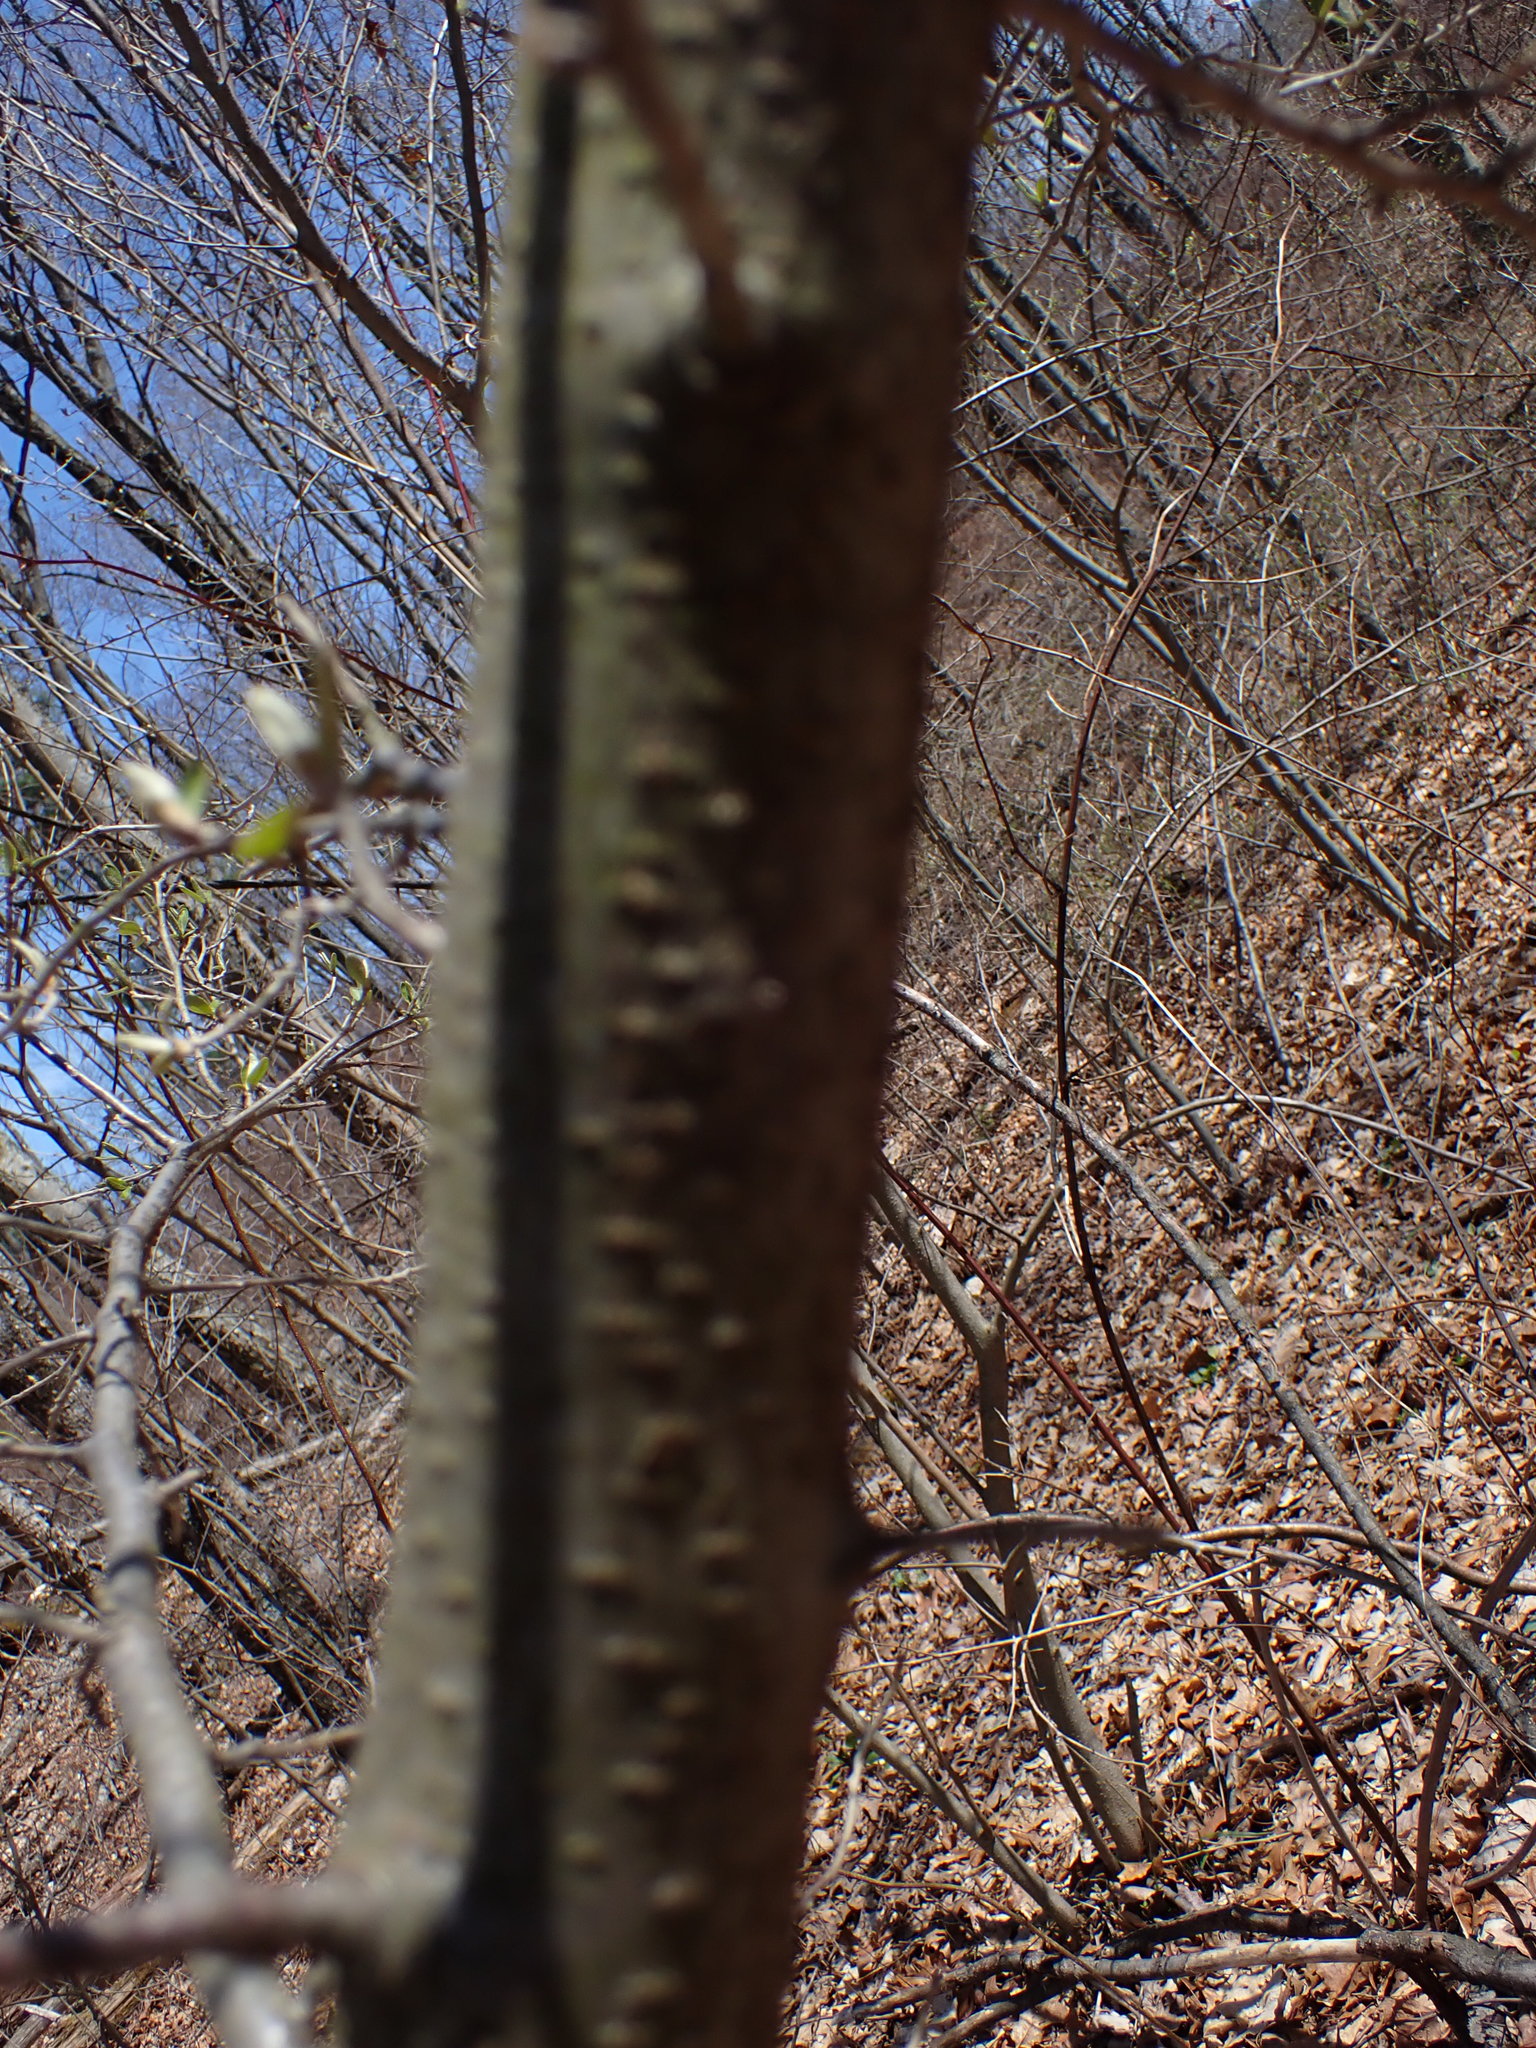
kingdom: Plantae
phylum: Tracheophyta
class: Magnoliopsida
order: Rosales
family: Elaeagnaceae
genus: Elaeagnus
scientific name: Elaeagnus umbellata
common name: Autumn olive
